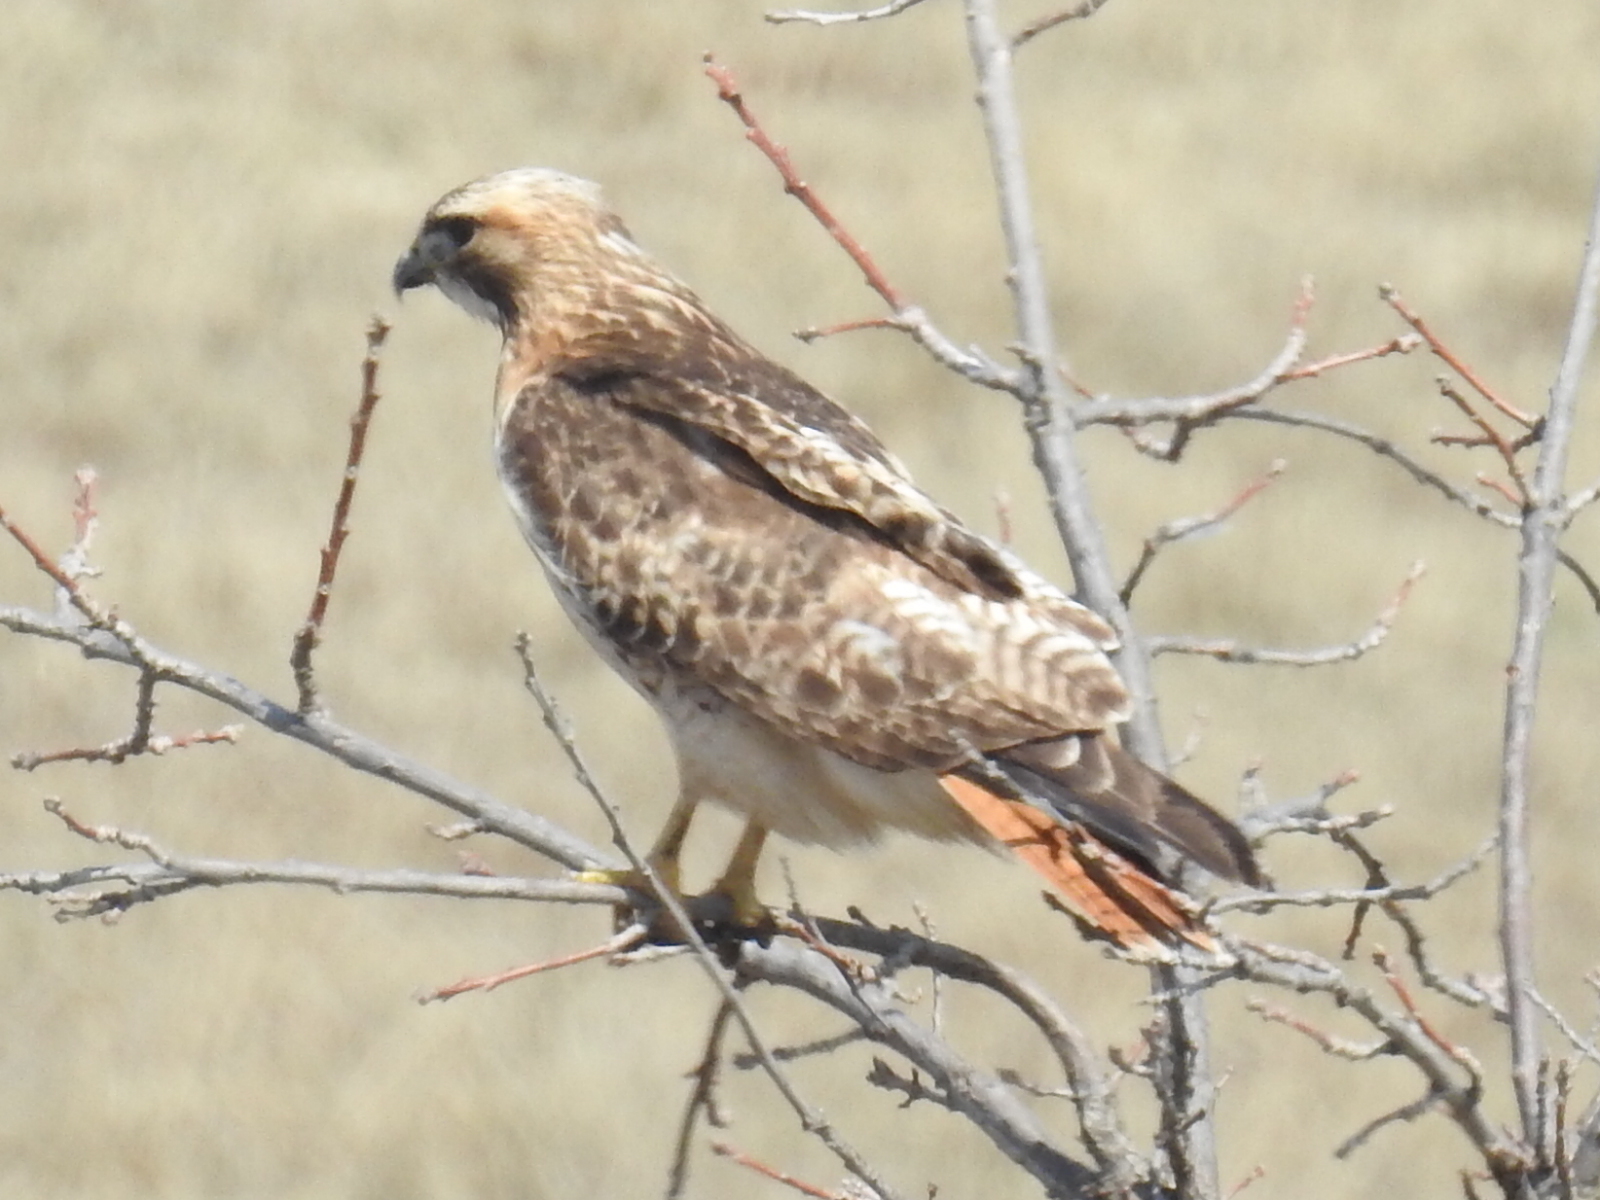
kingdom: Animalia
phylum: Chordata
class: Aves
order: Accipitriformes
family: Accipitridae
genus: Buteo
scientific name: Buteo jamaicensis
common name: Red-tailed hawk
